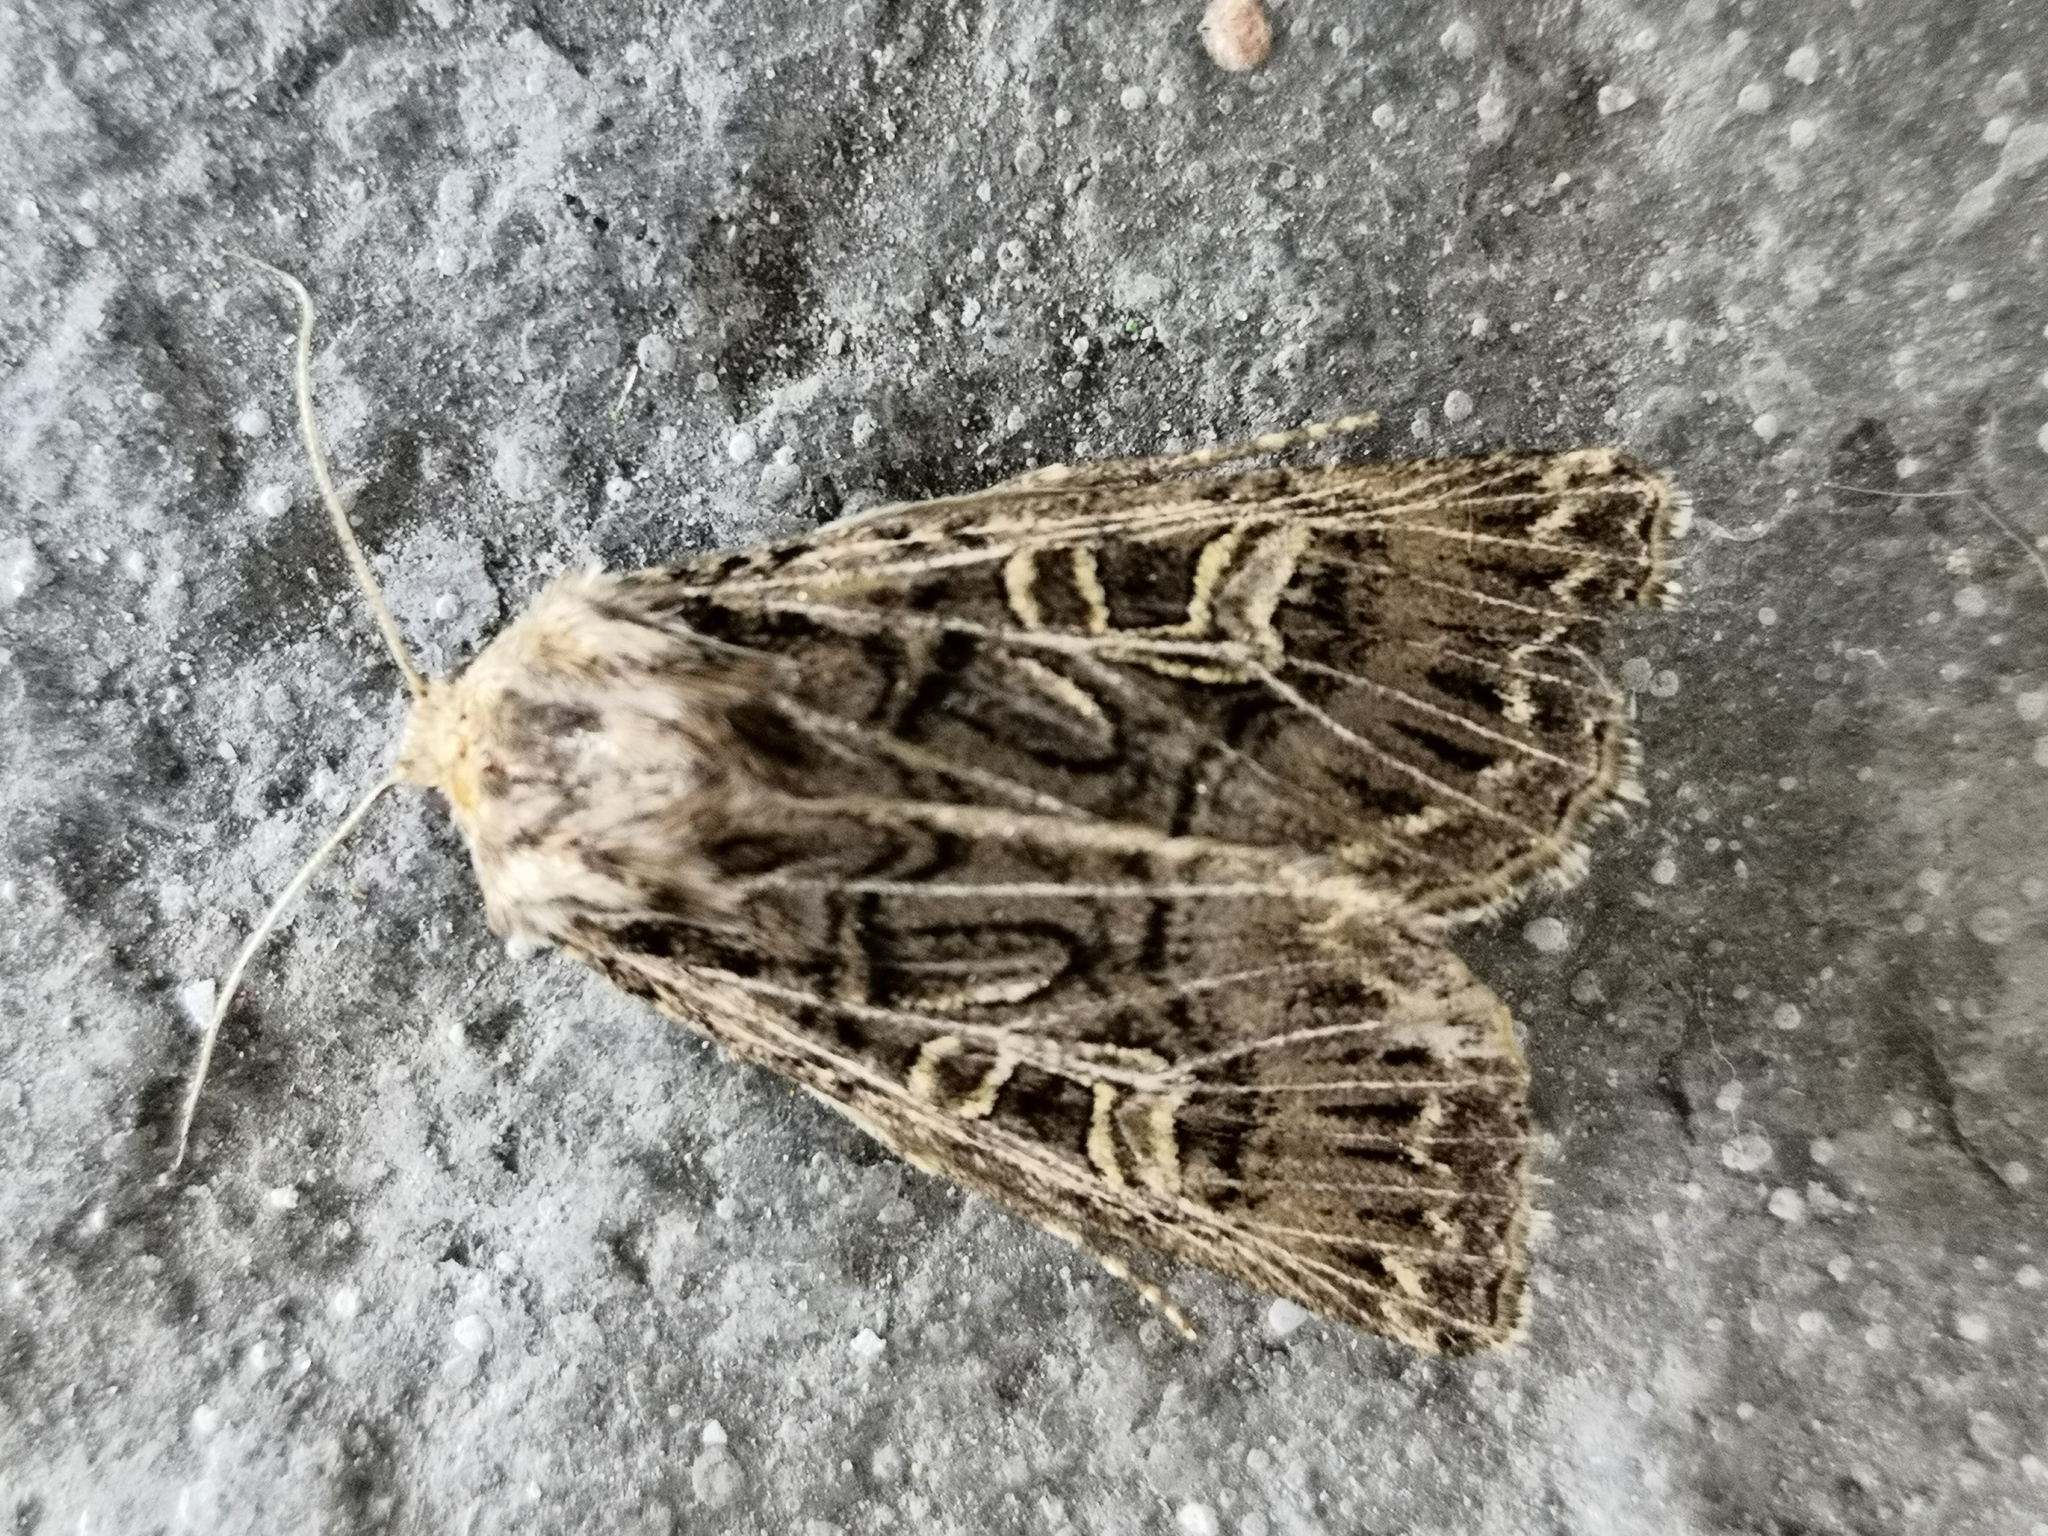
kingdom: Animalia
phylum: Arthropoda
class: Insecta
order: Lepidoptera
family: Noctuidae
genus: Tholera
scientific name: Tholera decimalis
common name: Feathered gothic
